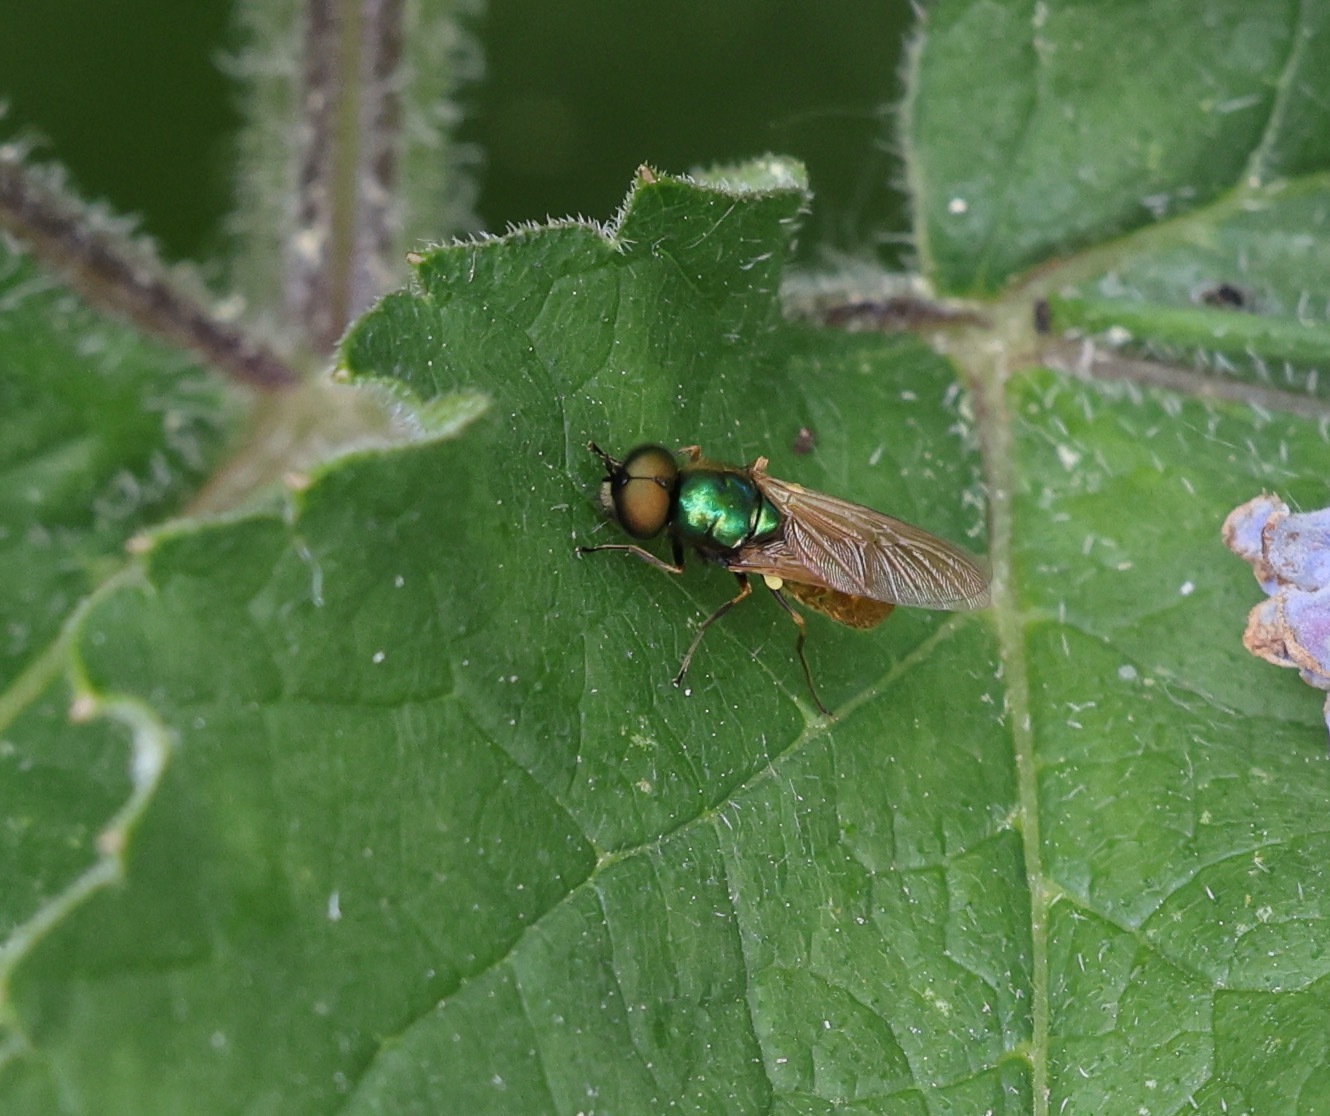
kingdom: Animalia
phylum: Arthropoda
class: Insecta
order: Diptera
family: Stratiomyidae
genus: Chloromyia
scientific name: Chloromyia formosa
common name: Soldier fly
